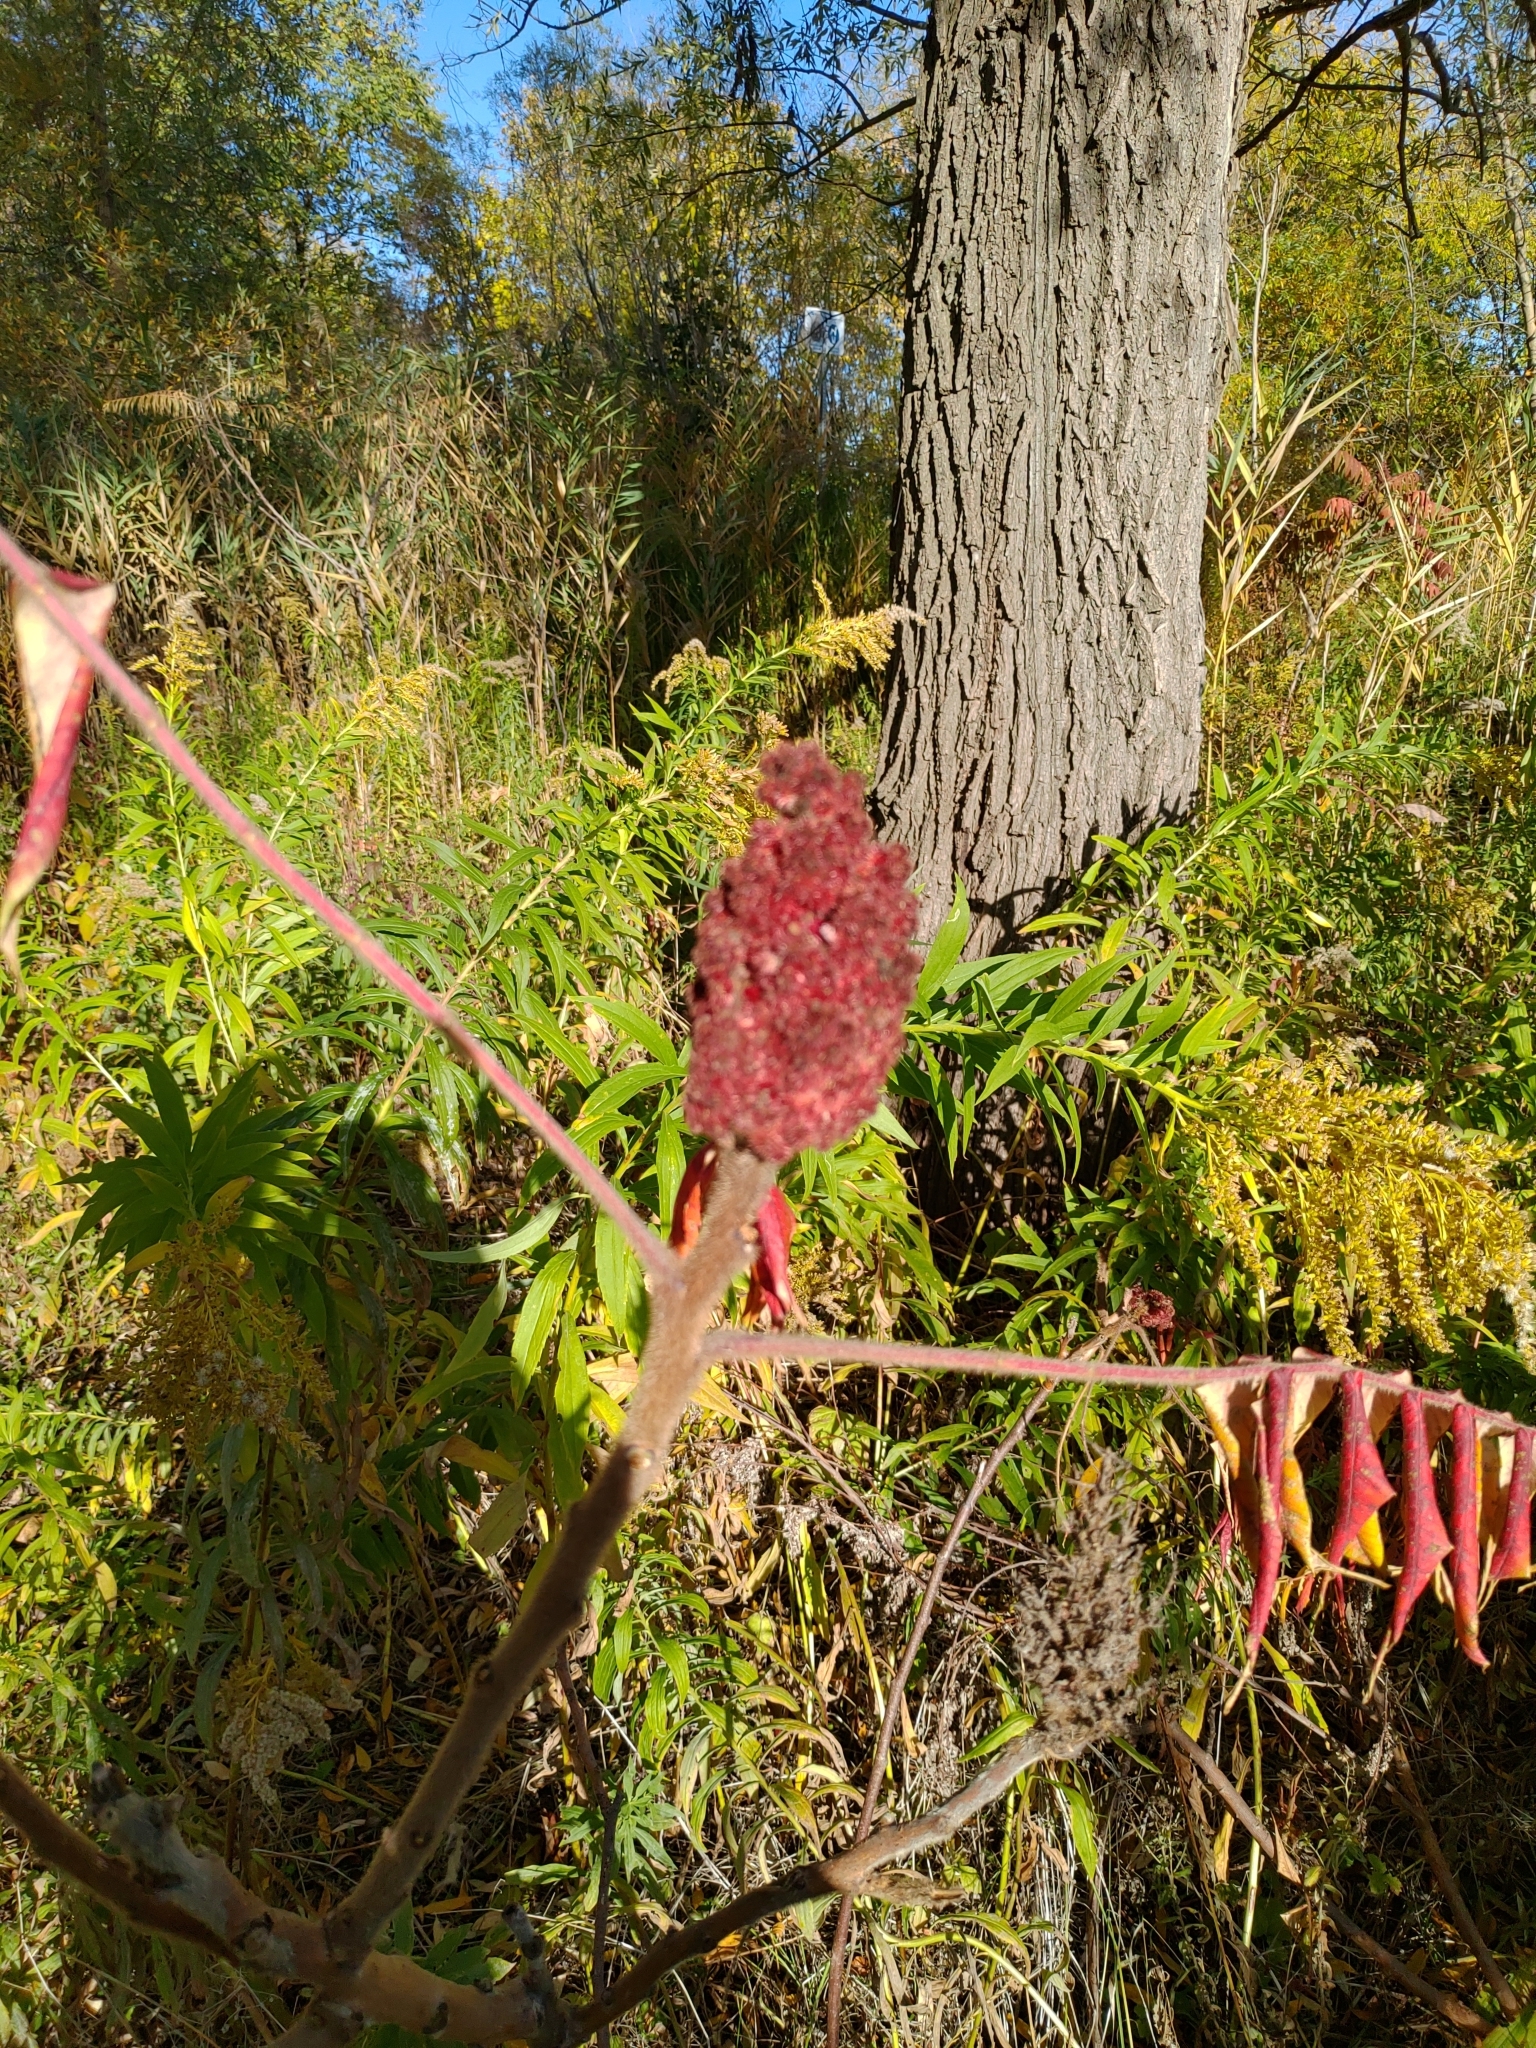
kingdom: Plantae
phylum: Tracheophyta
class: Magnoliopsida
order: Sapindales
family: Anacardiaceae
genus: Rhus
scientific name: Rhus typhina
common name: Staghorn sumac
